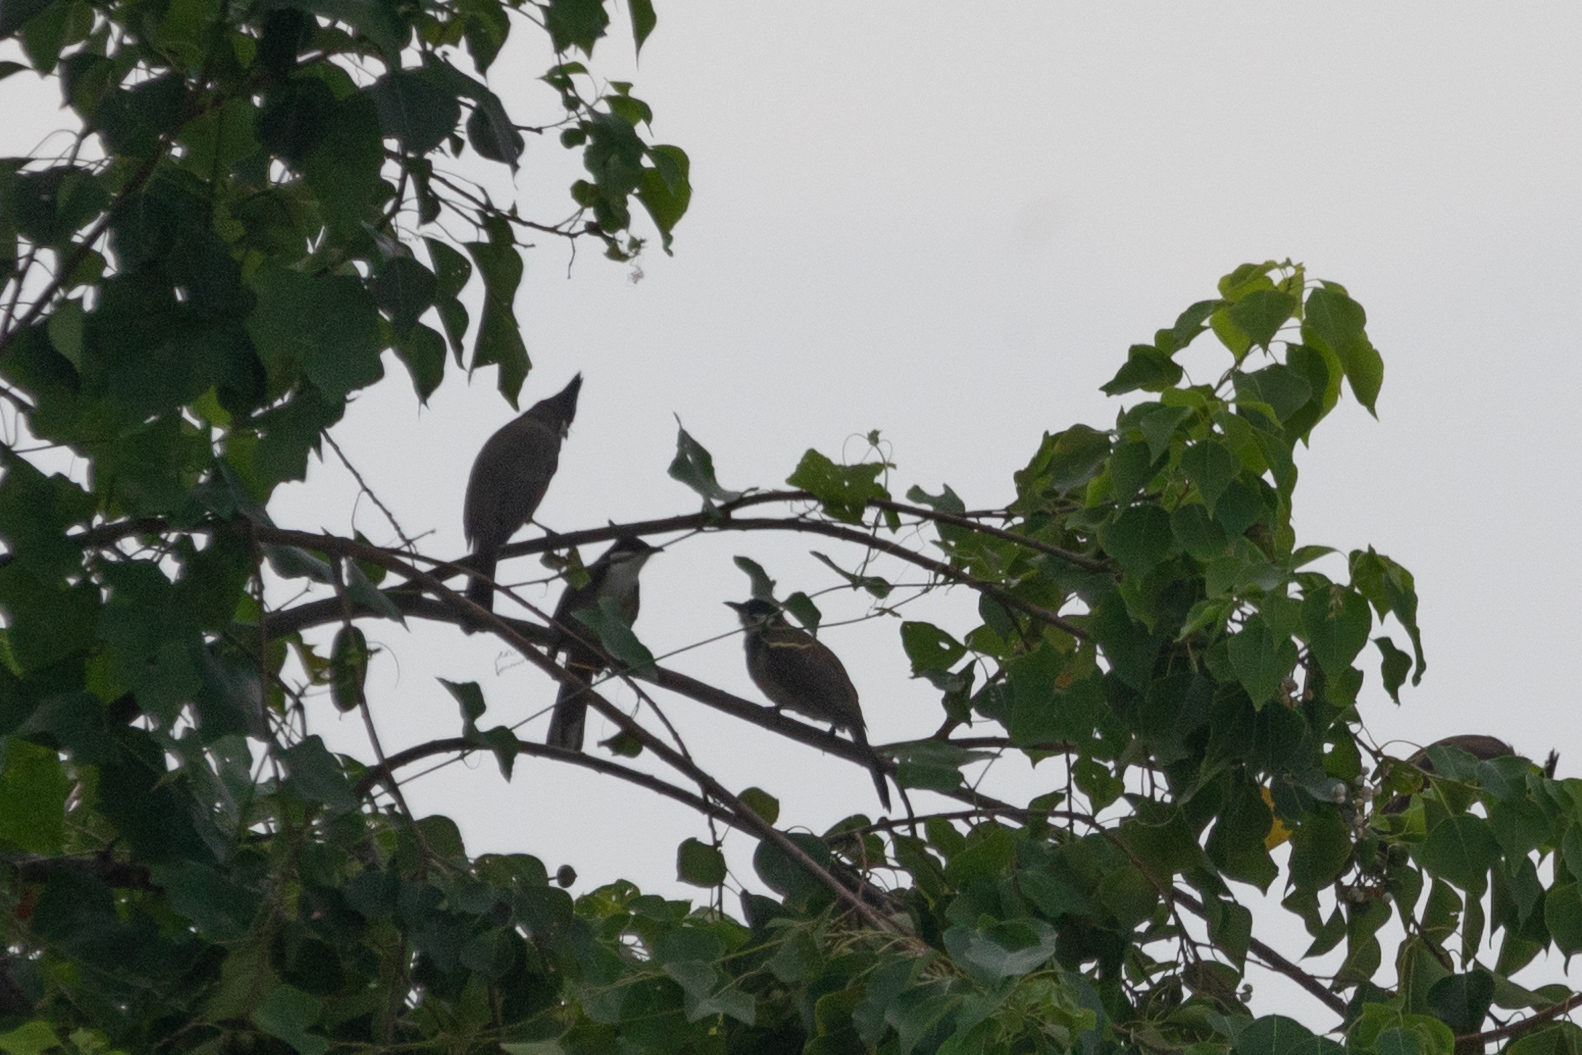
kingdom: Animalia
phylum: Chordata
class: Aves
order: Passeriformes
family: Pycnonotidae
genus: Pycnonotus
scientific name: Pycnonotus jocosus
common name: Red-whiskered bulbul
